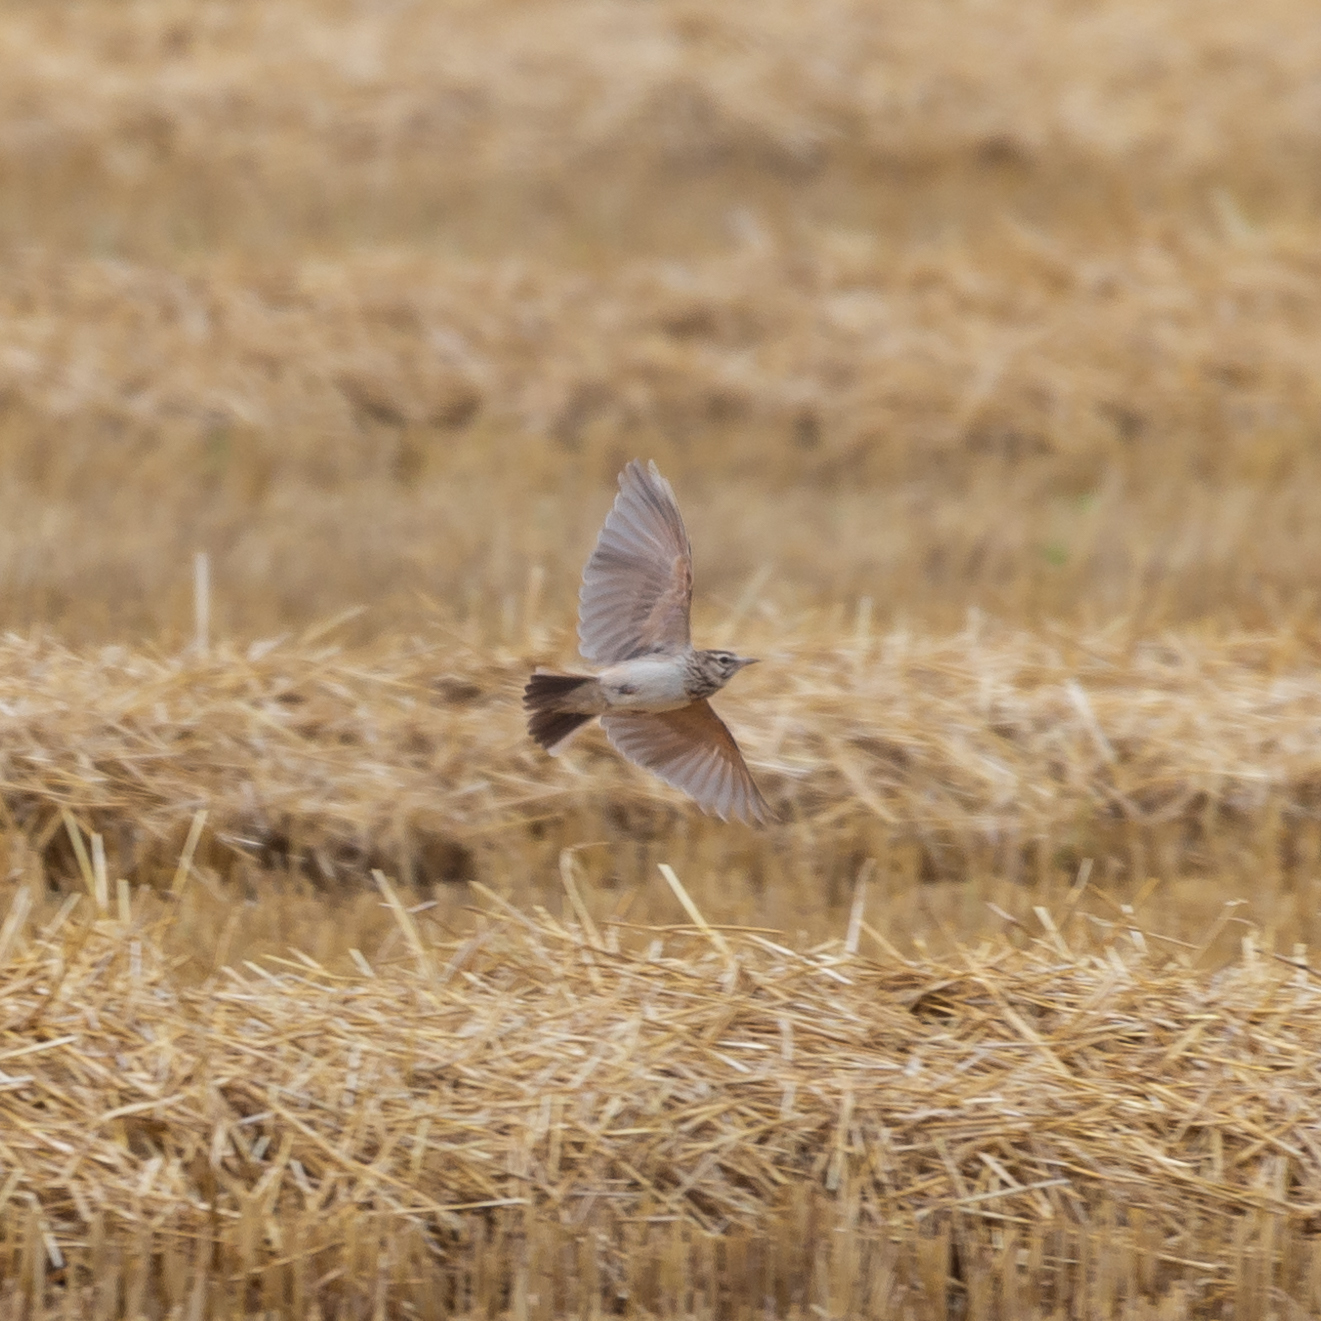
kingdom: Animalia
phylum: Chordata
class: Aves
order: Passeriformes
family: Alaudidae
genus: Galerida
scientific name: Galerida cristata
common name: Crested lark
